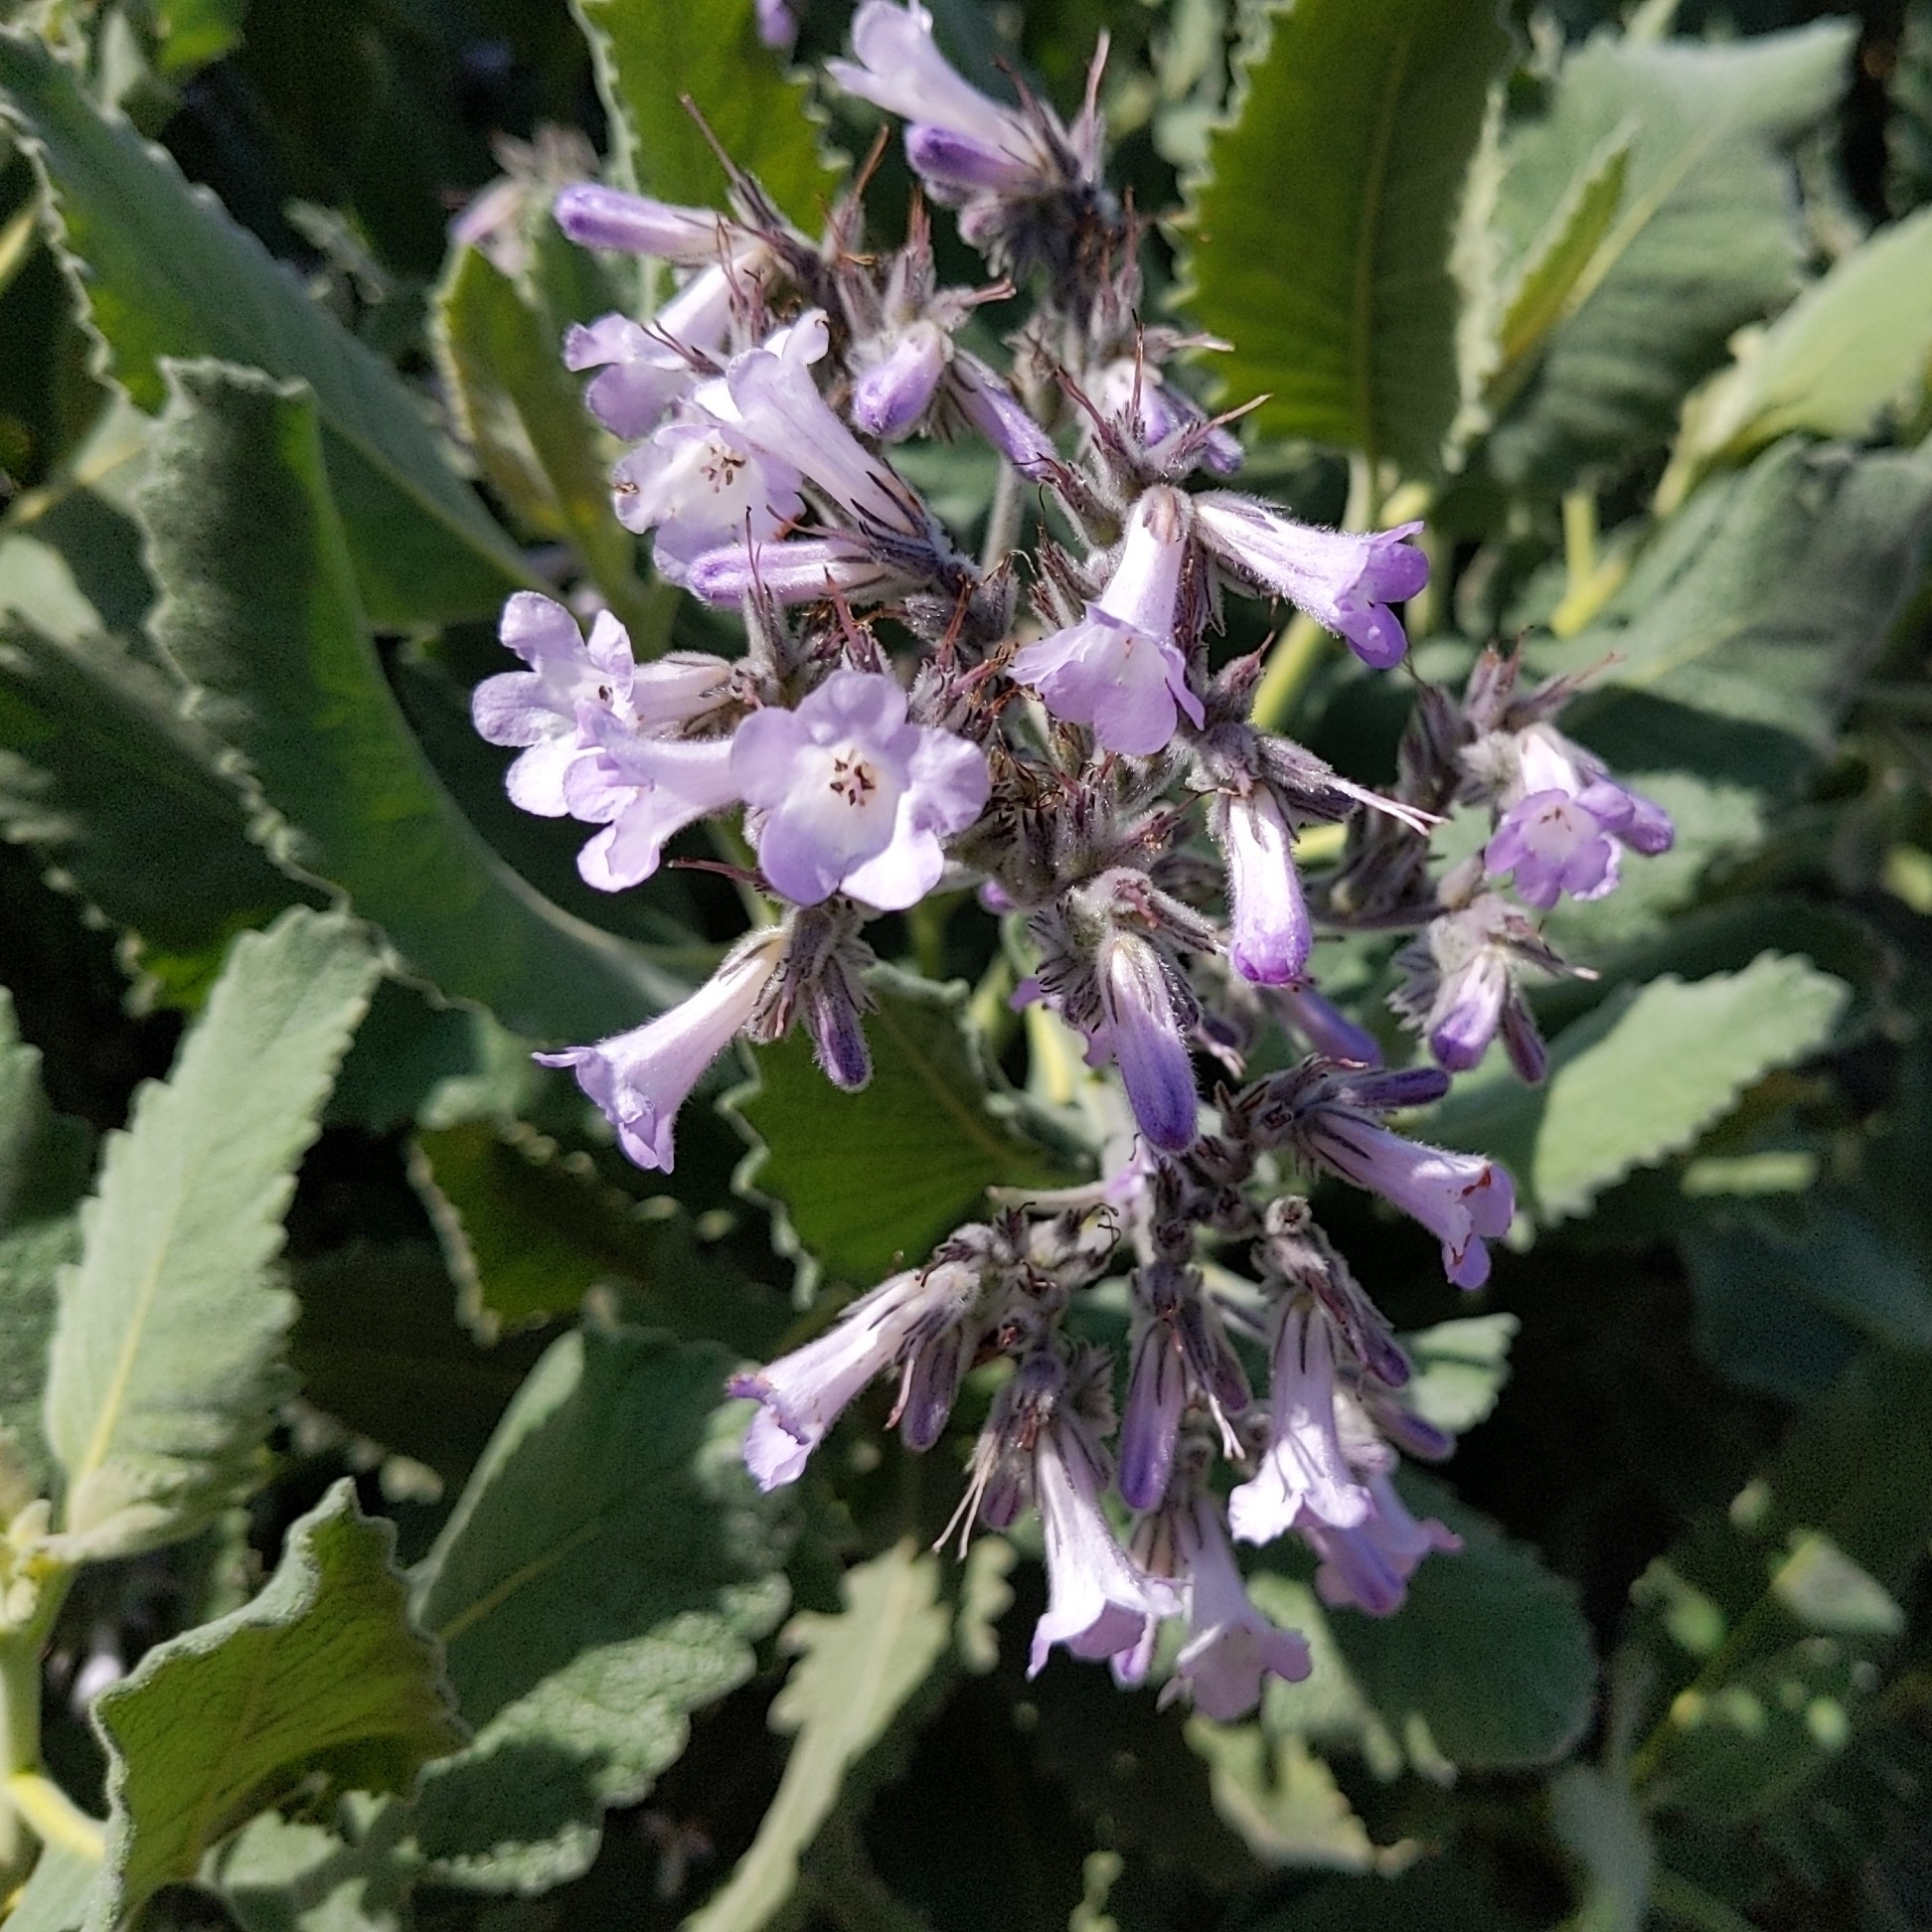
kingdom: Plantae
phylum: Tracheophyta
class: Magnoliopsida
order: Boraginales
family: Namaceae
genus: Eriodictyon
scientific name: Eriodictyon crassifolium
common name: Thick-leaf yerba-santa
